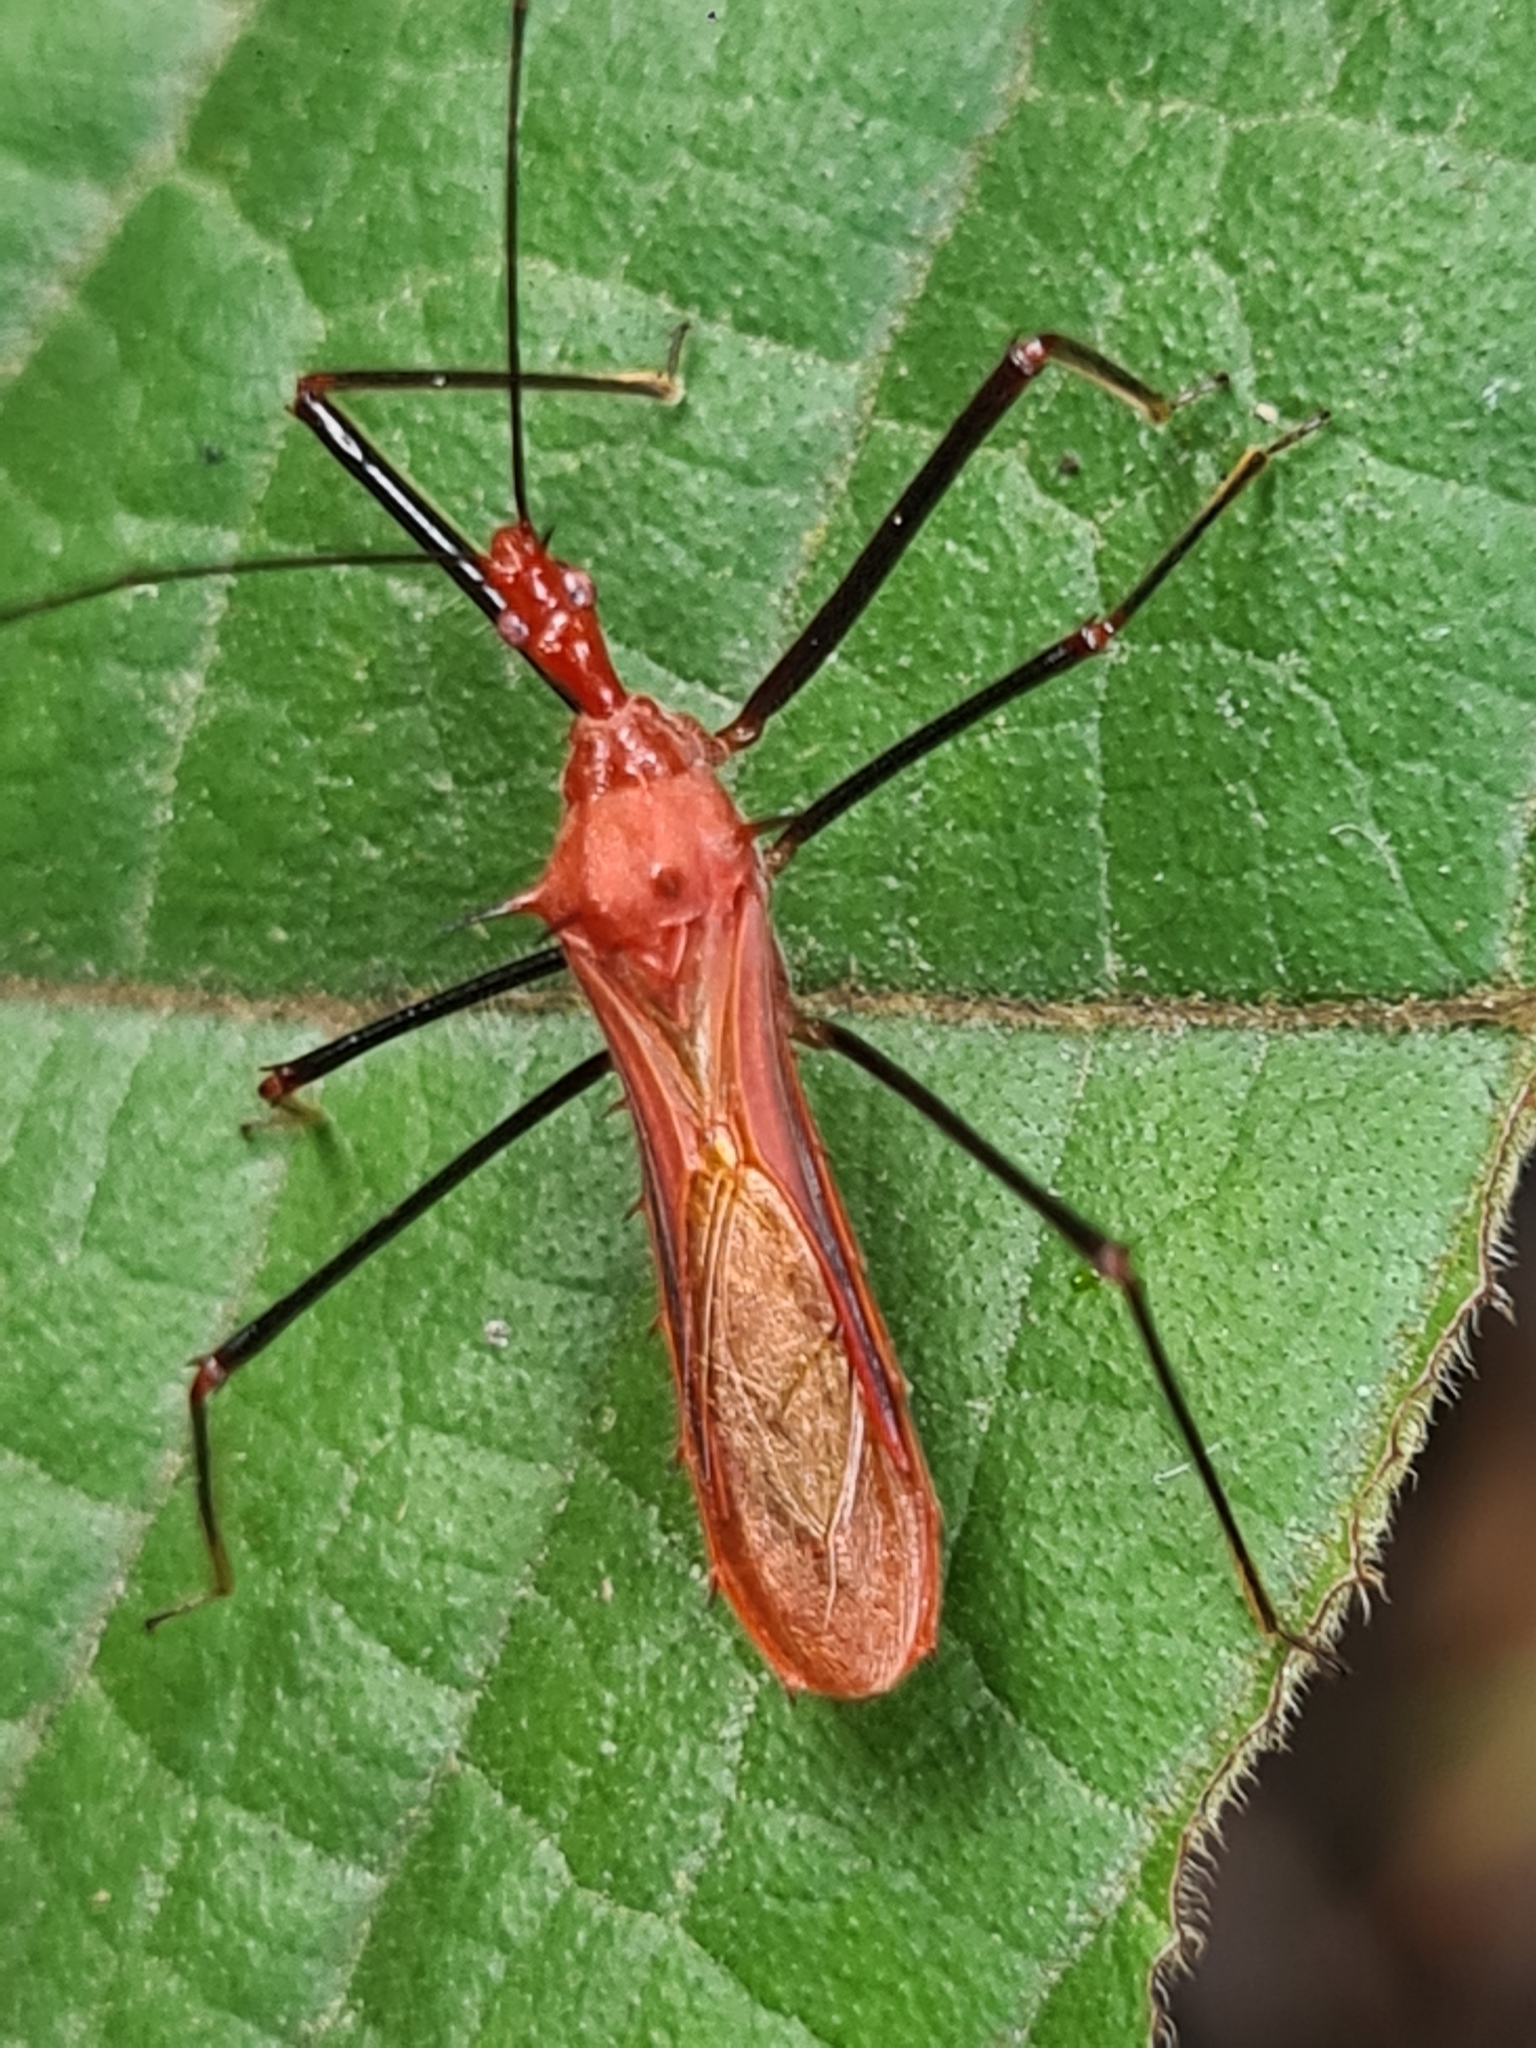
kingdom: Animalia
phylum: Arthropoda
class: Insecta
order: Hemiptera
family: Reduviidae
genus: Ricolla
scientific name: Ricolla quadrispinosa
